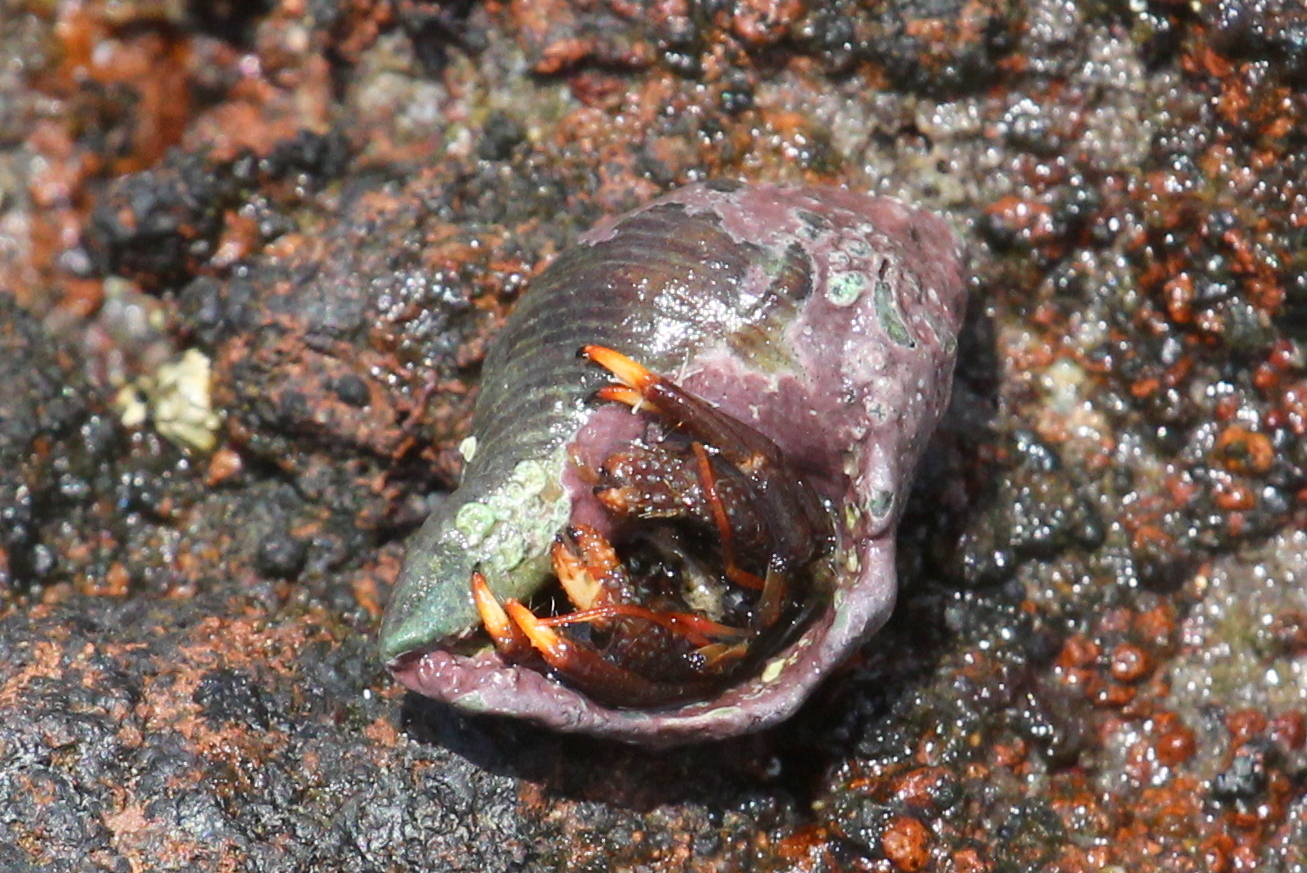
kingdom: Animalia
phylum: Arthropoda
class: Malacostraca
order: Decapoda
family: Diogenidae
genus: Clibanarius
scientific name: Clibanarius aequabilis
